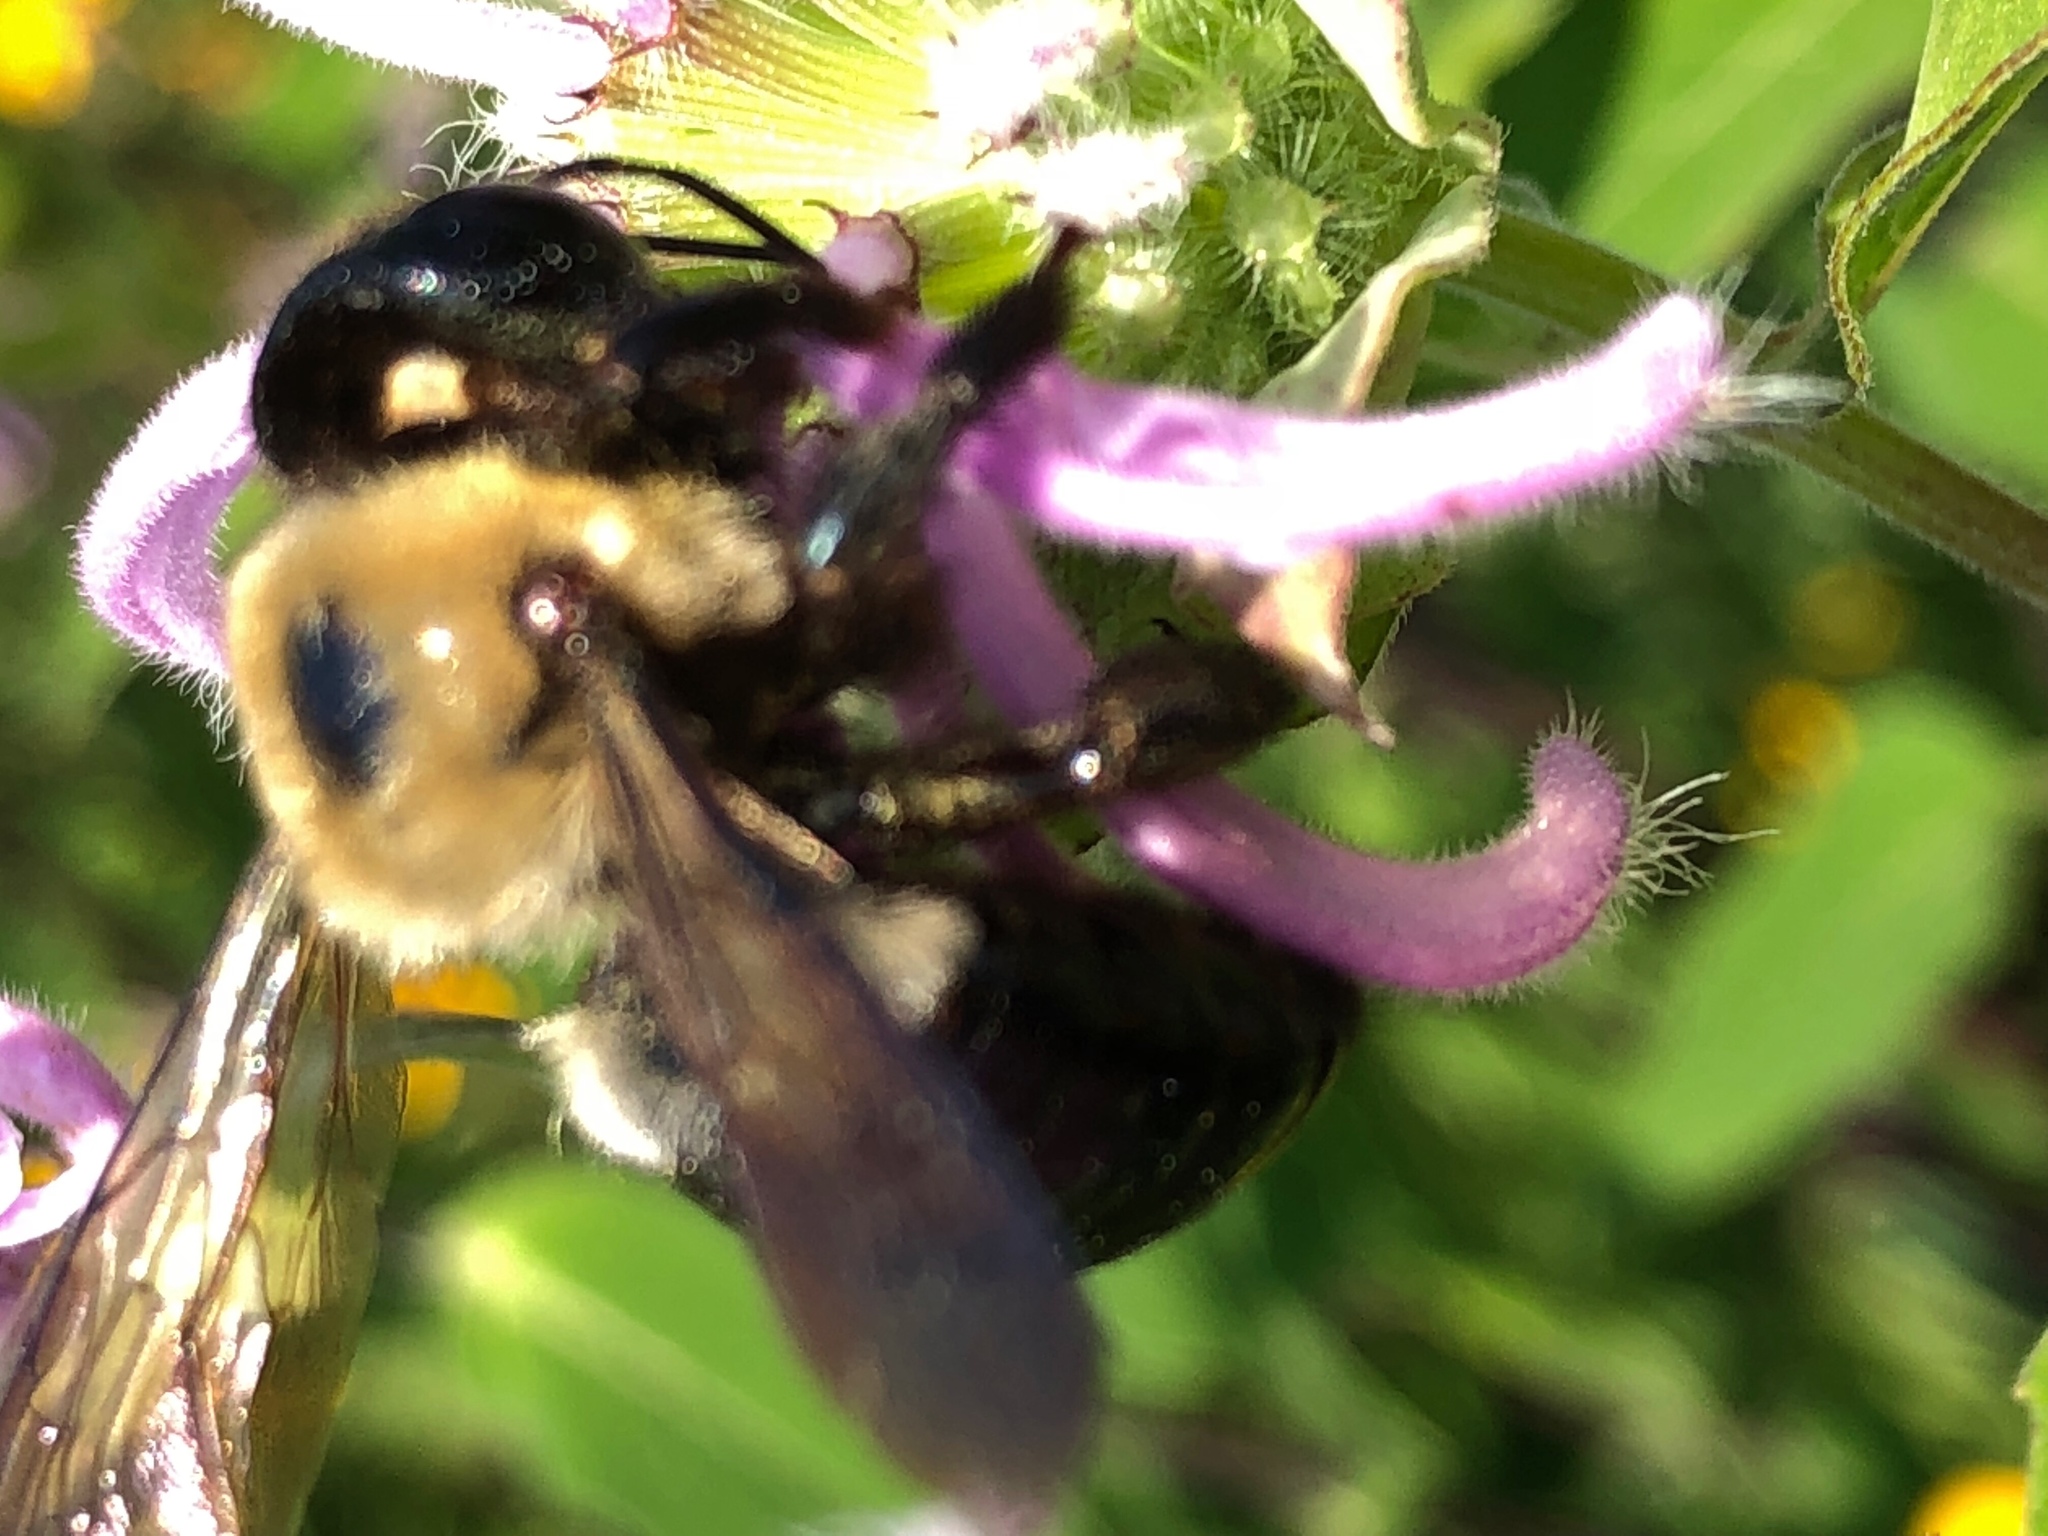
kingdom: Animalia
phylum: Arthropoda
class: Insecta
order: Hymenoptera
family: Apidae
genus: Xylocopa
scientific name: Xylocopa virginica
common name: Carpenter bee
